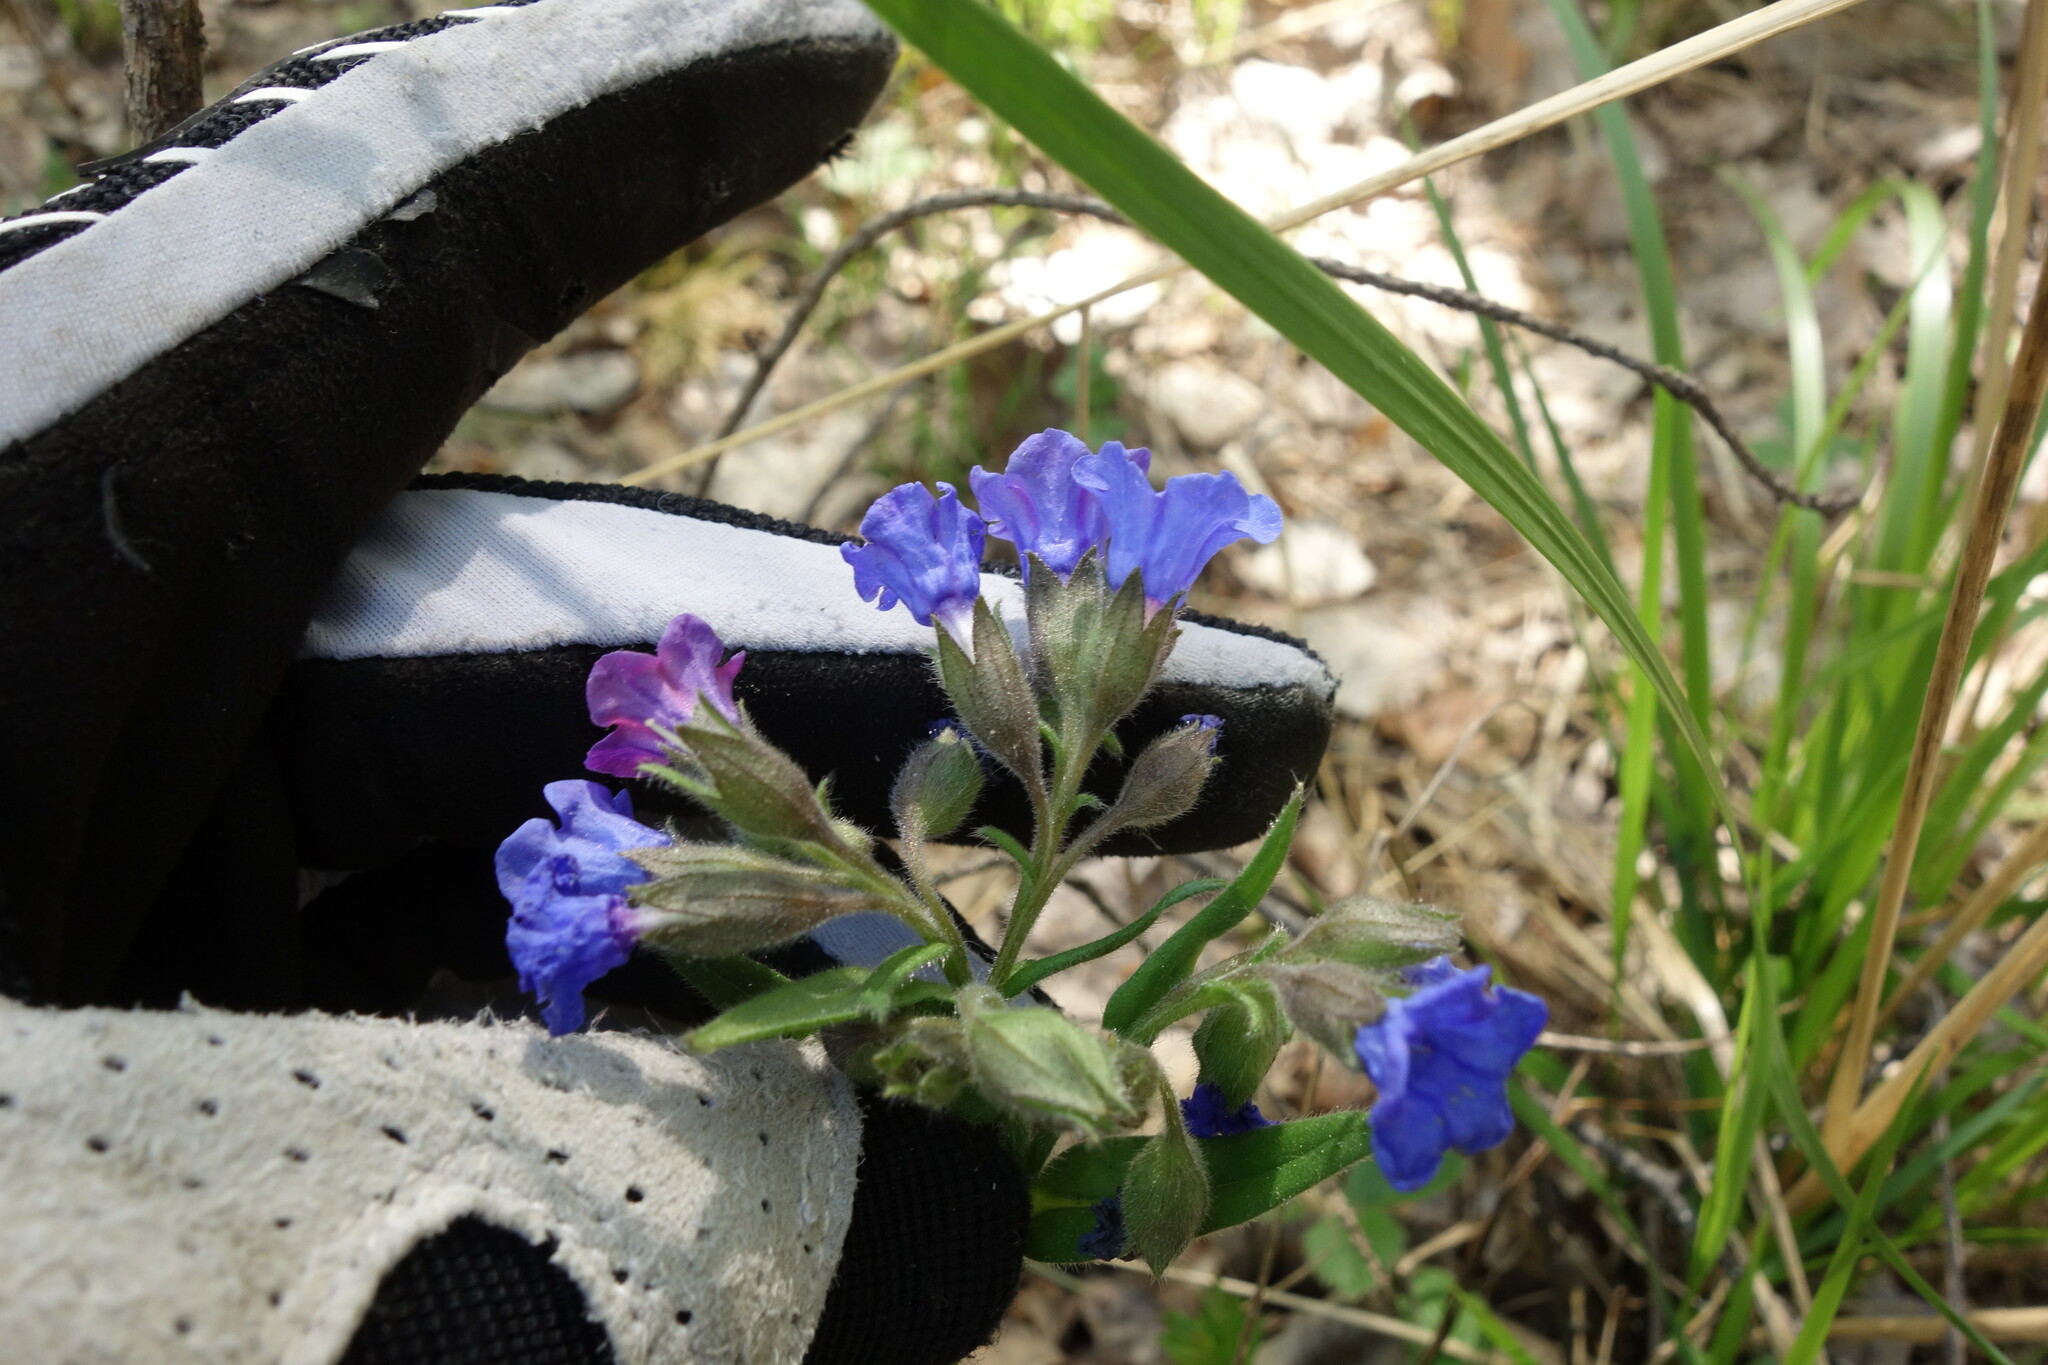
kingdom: Plantae
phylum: Tracheophyta
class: Magnoliopsida
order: Boraginales
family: Boraginaceae
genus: Pulmonaria
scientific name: Pulmonaria angustifolia
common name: Blue cowslip
